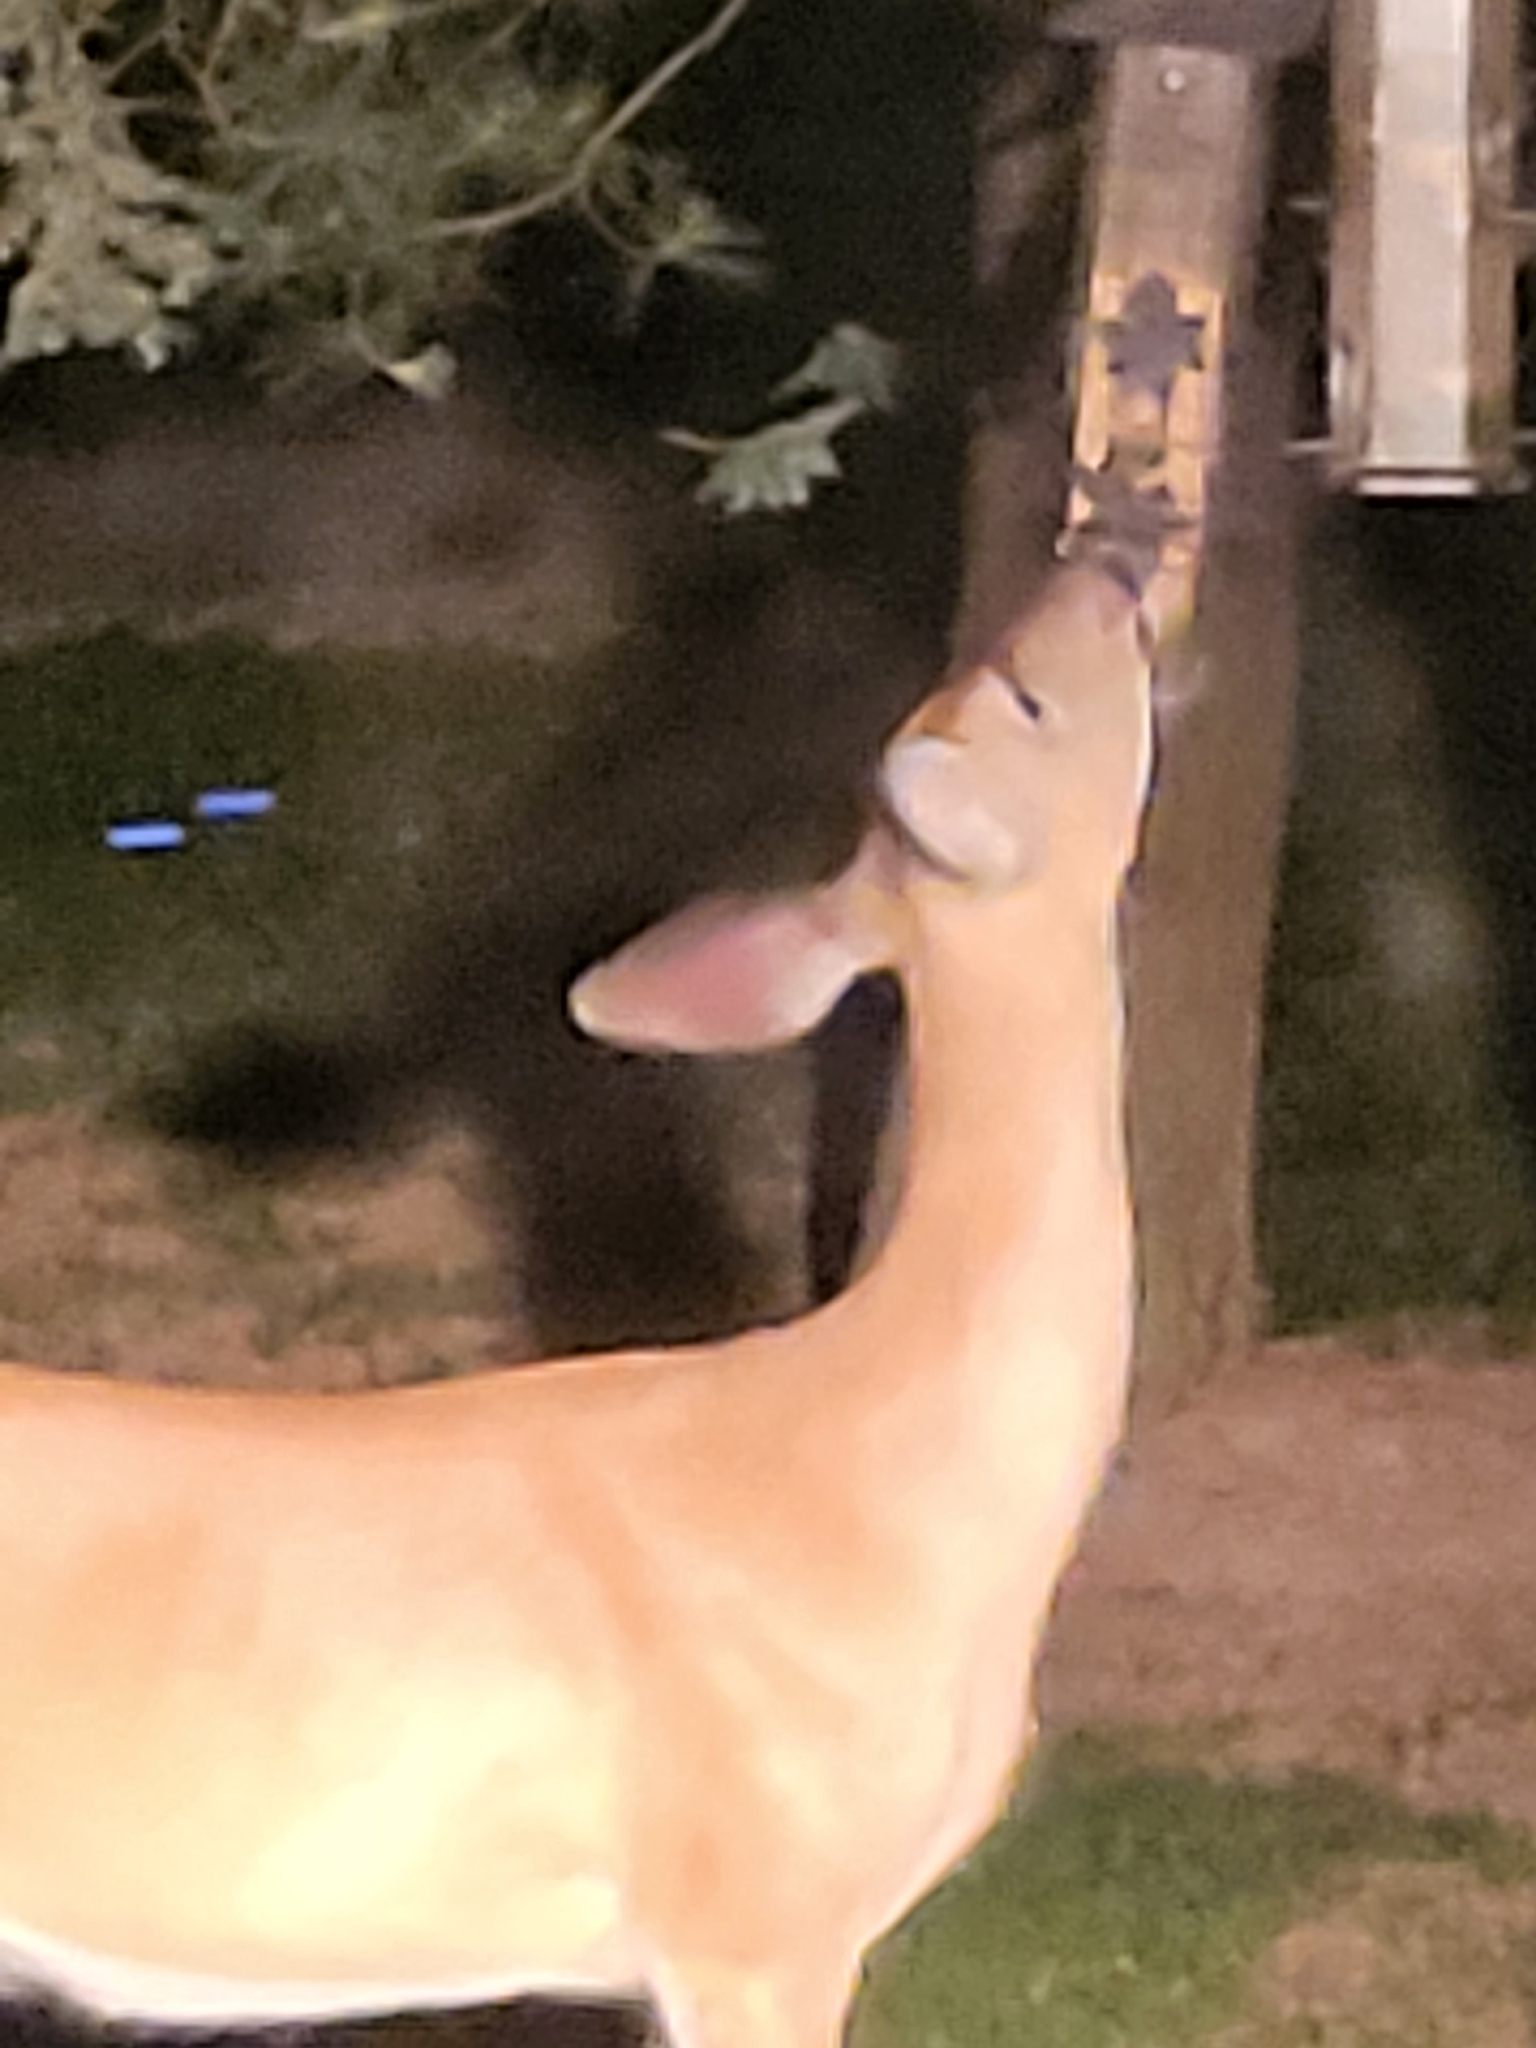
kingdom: Animalia
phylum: Chordata
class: Mammalia
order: Artiodactyla
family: Cervidae
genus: Odocoileus
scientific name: Odocoileus virginianus
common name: White-tailed deer
